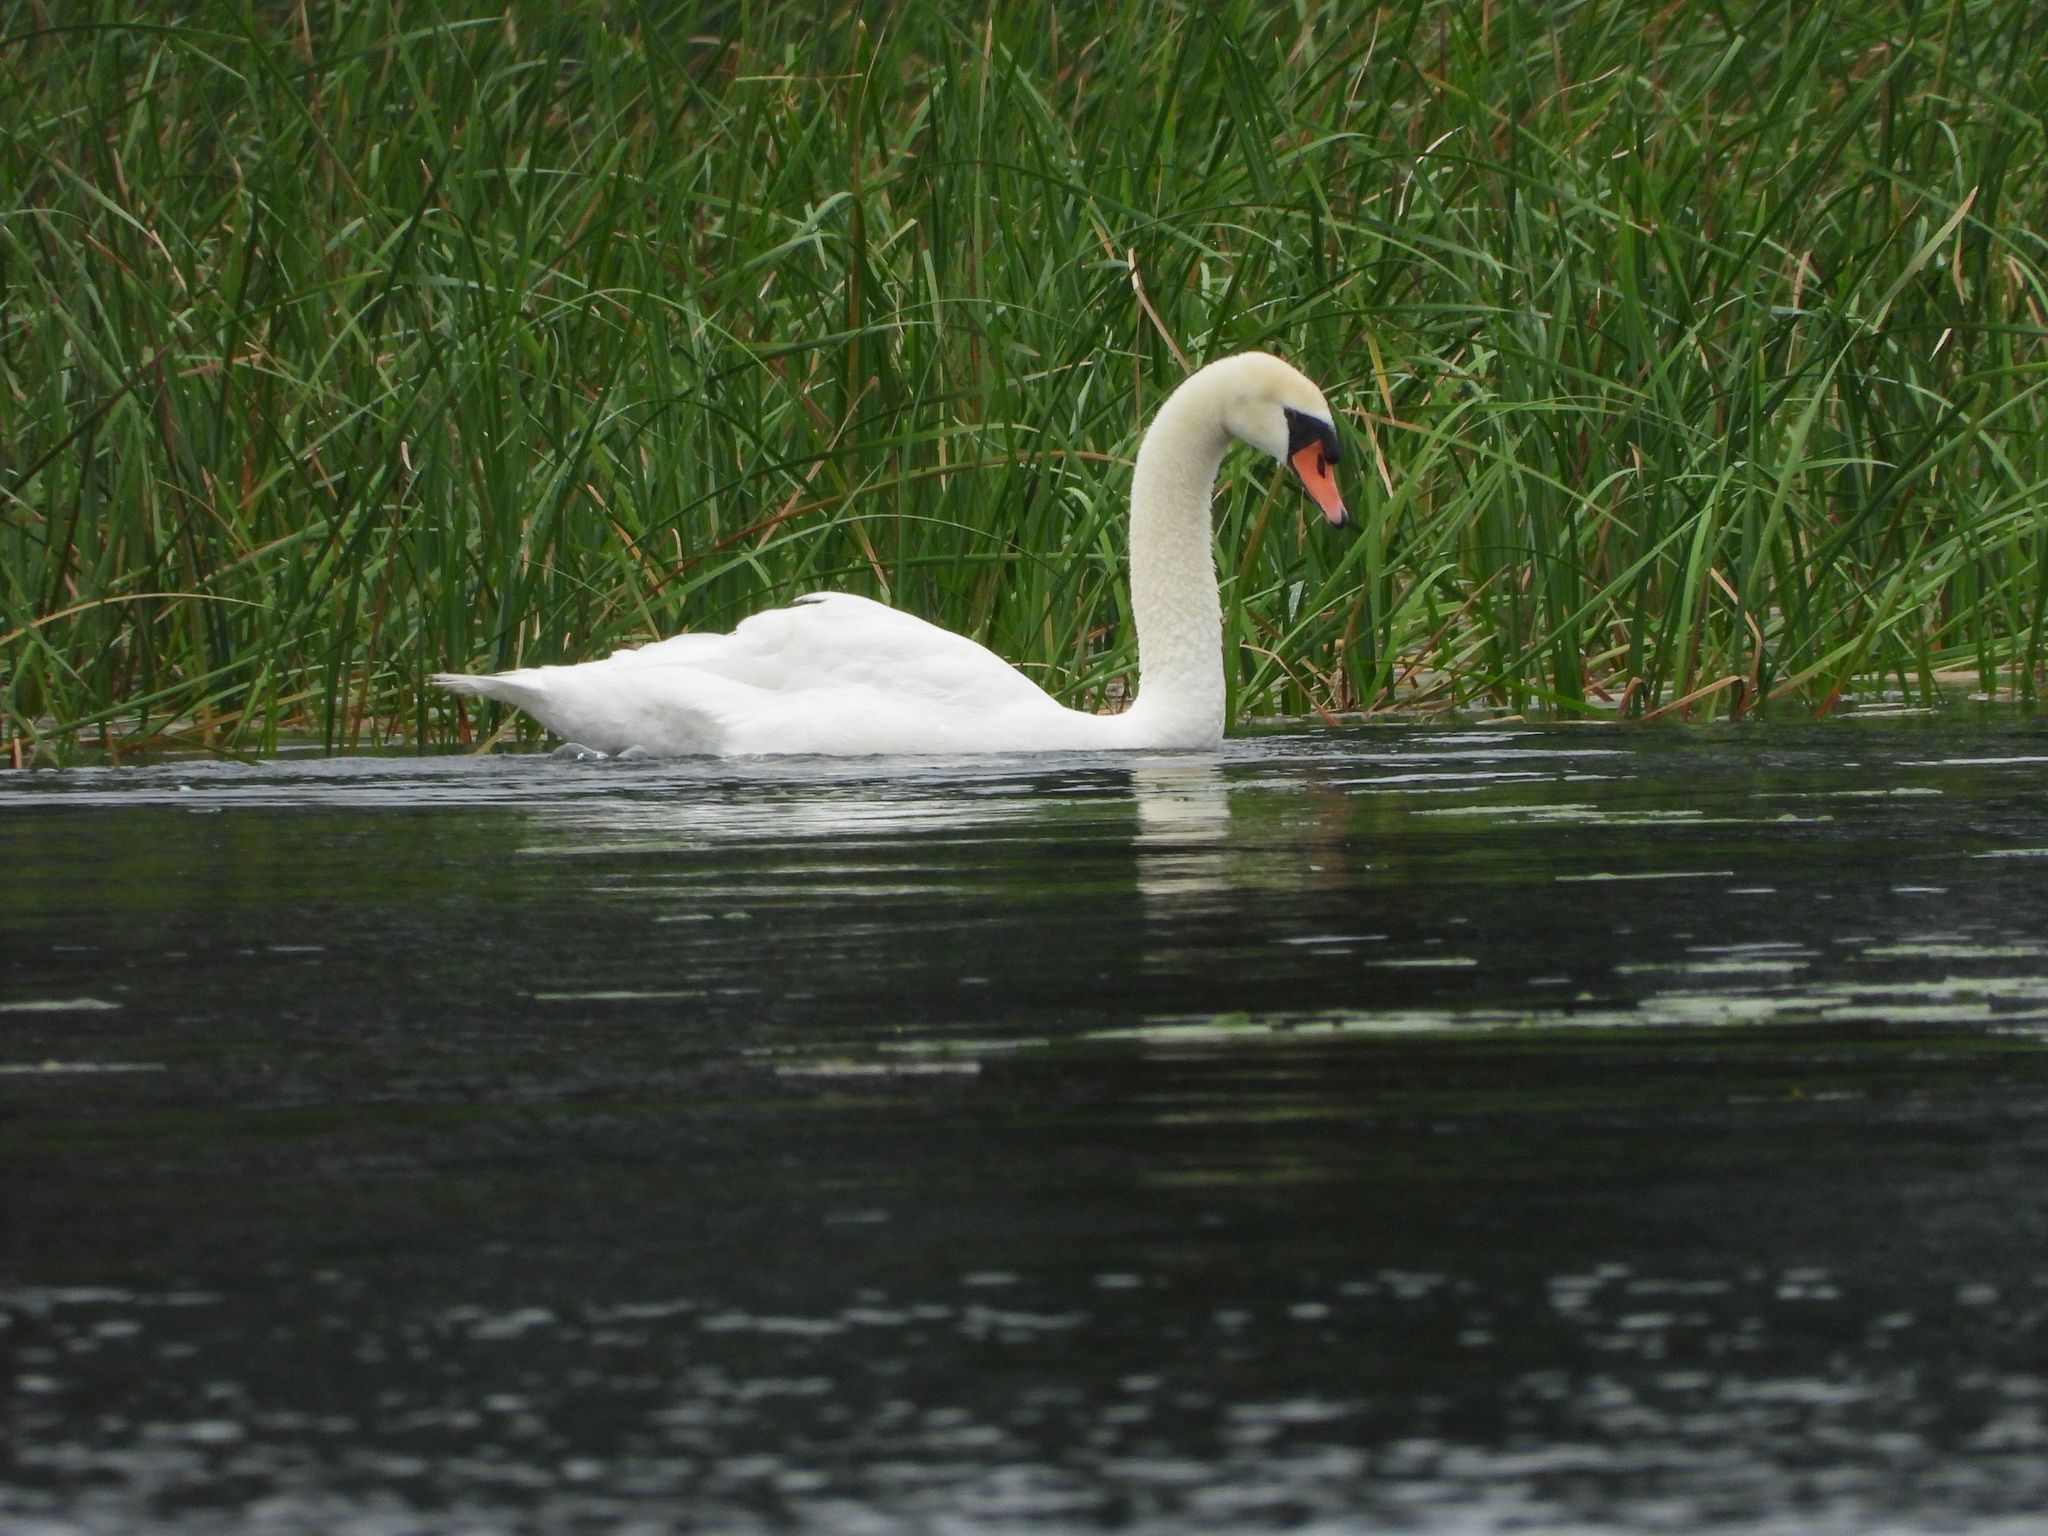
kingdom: Animalia
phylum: Chordata
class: Aves
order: Anseriformes
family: Anatidae
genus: Cygnus
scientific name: Cygnus olor
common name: Mute swan
